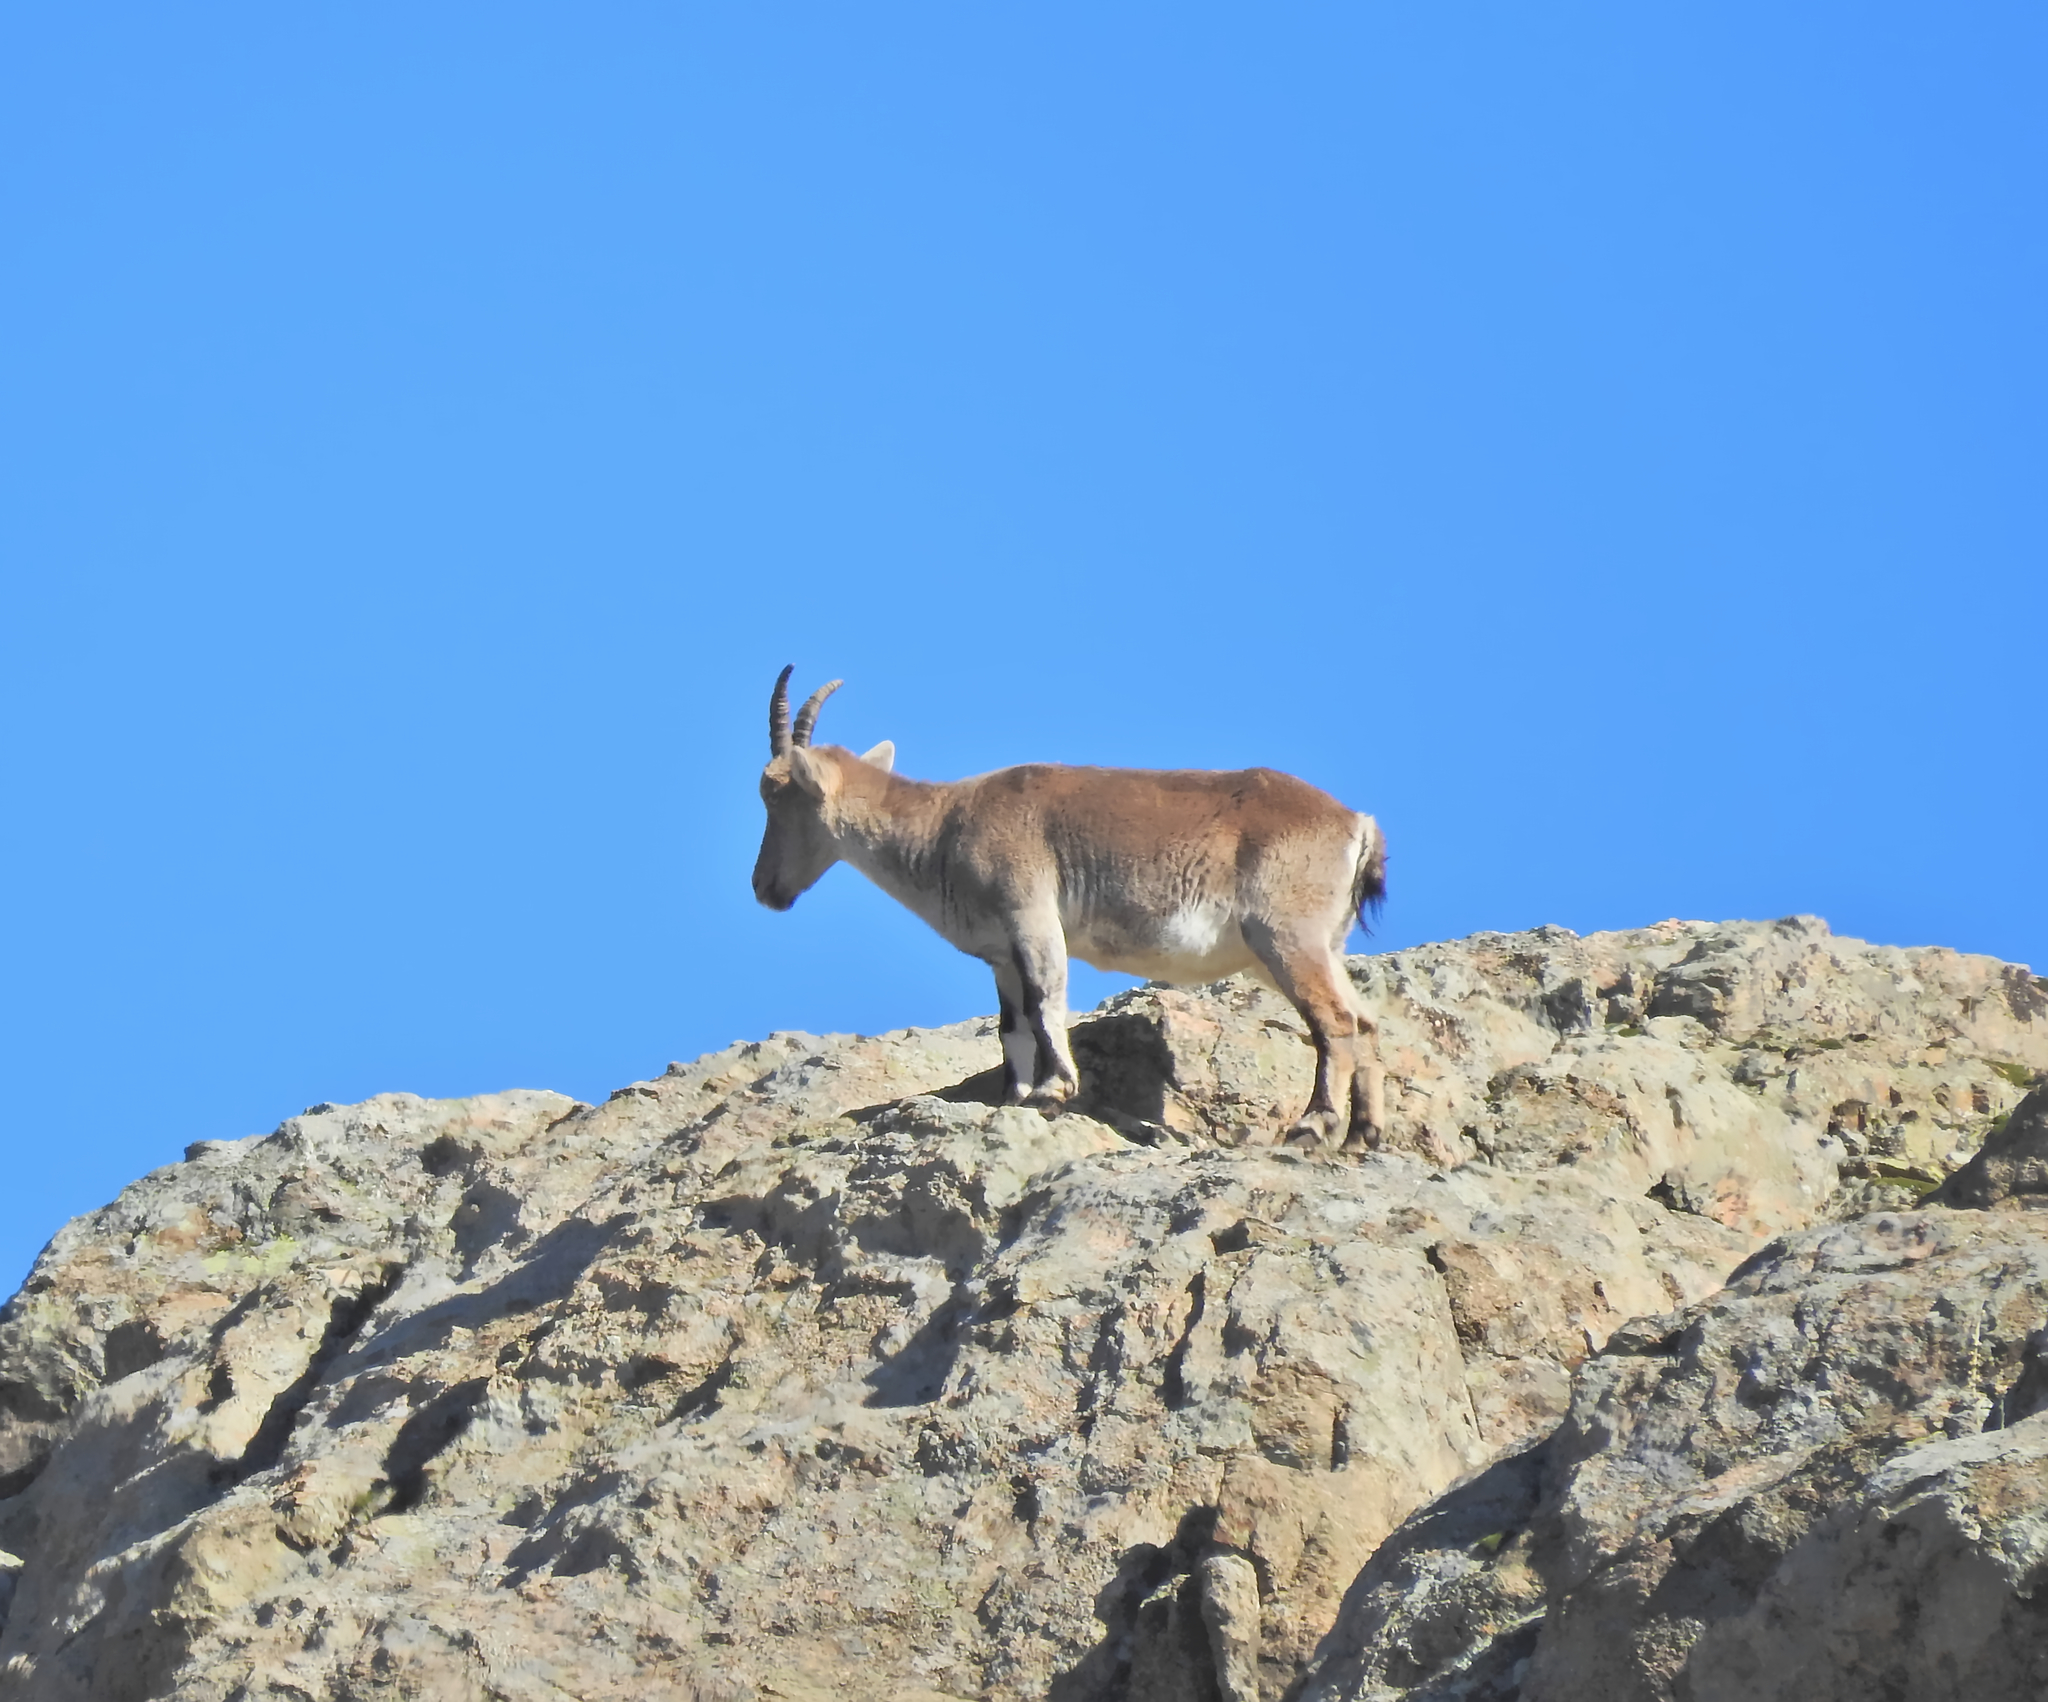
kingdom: Animalia
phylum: Chordata
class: Mammalia
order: Artiodactyla
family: Bovidae
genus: Capra
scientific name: Capra pyrenaica
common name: Spanish ibex
